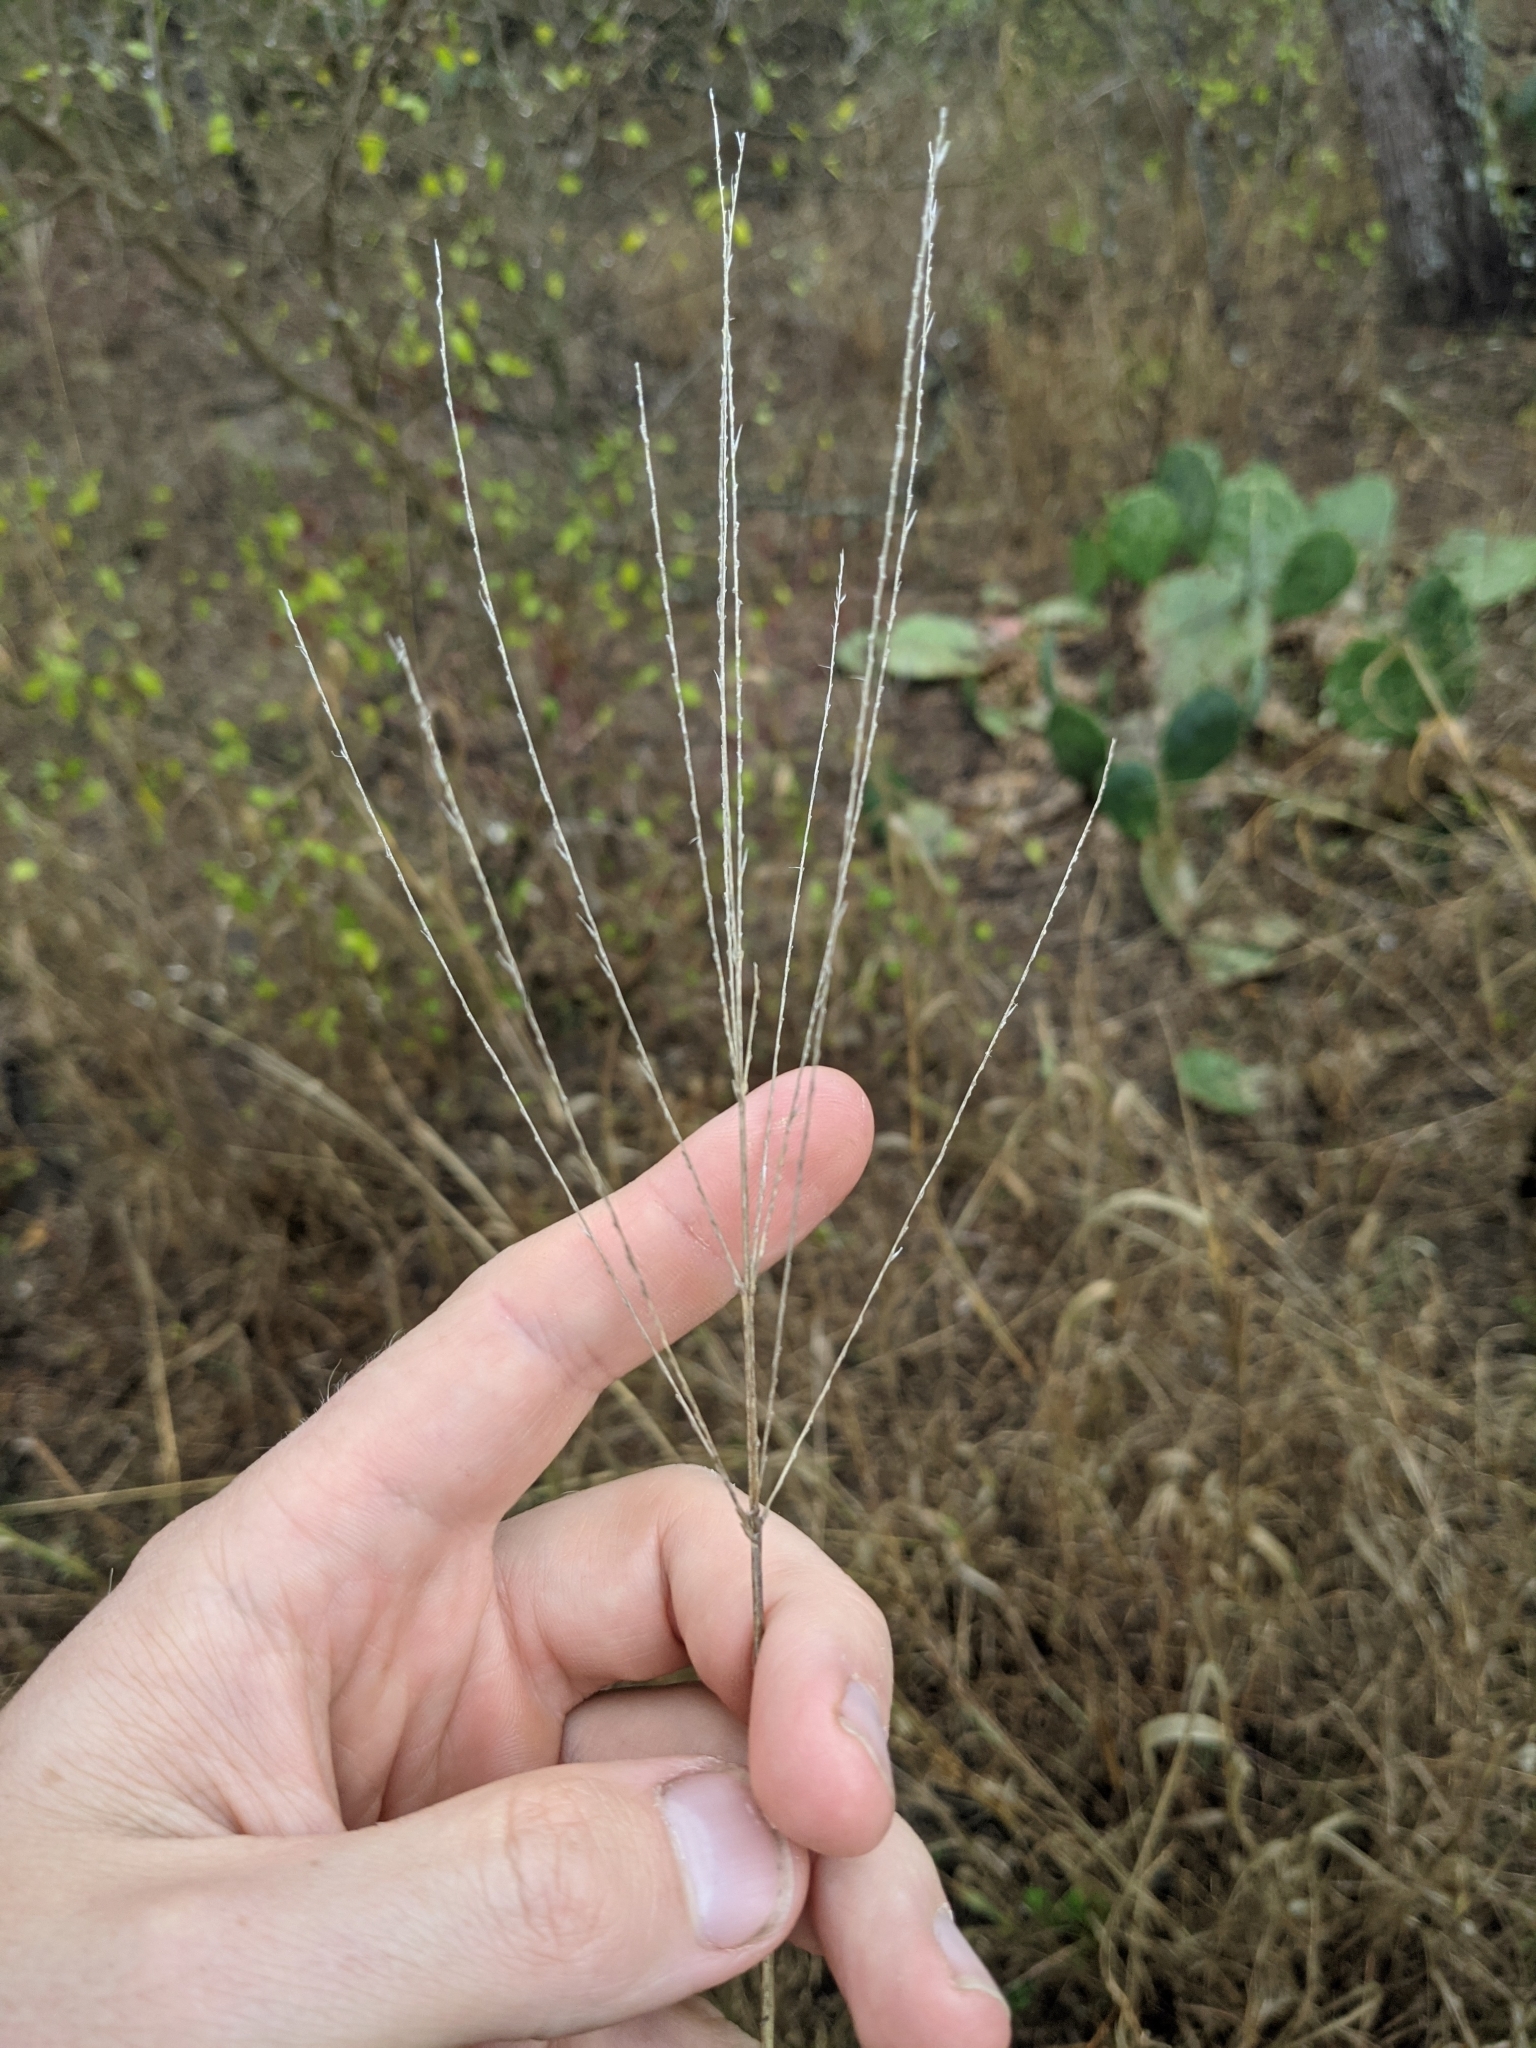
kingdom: Plantae
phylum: Tracheophyta
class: Liliopsida
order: Poales
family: Poaceae
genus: Leptochloa
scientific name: Leptochloa pluriflora
